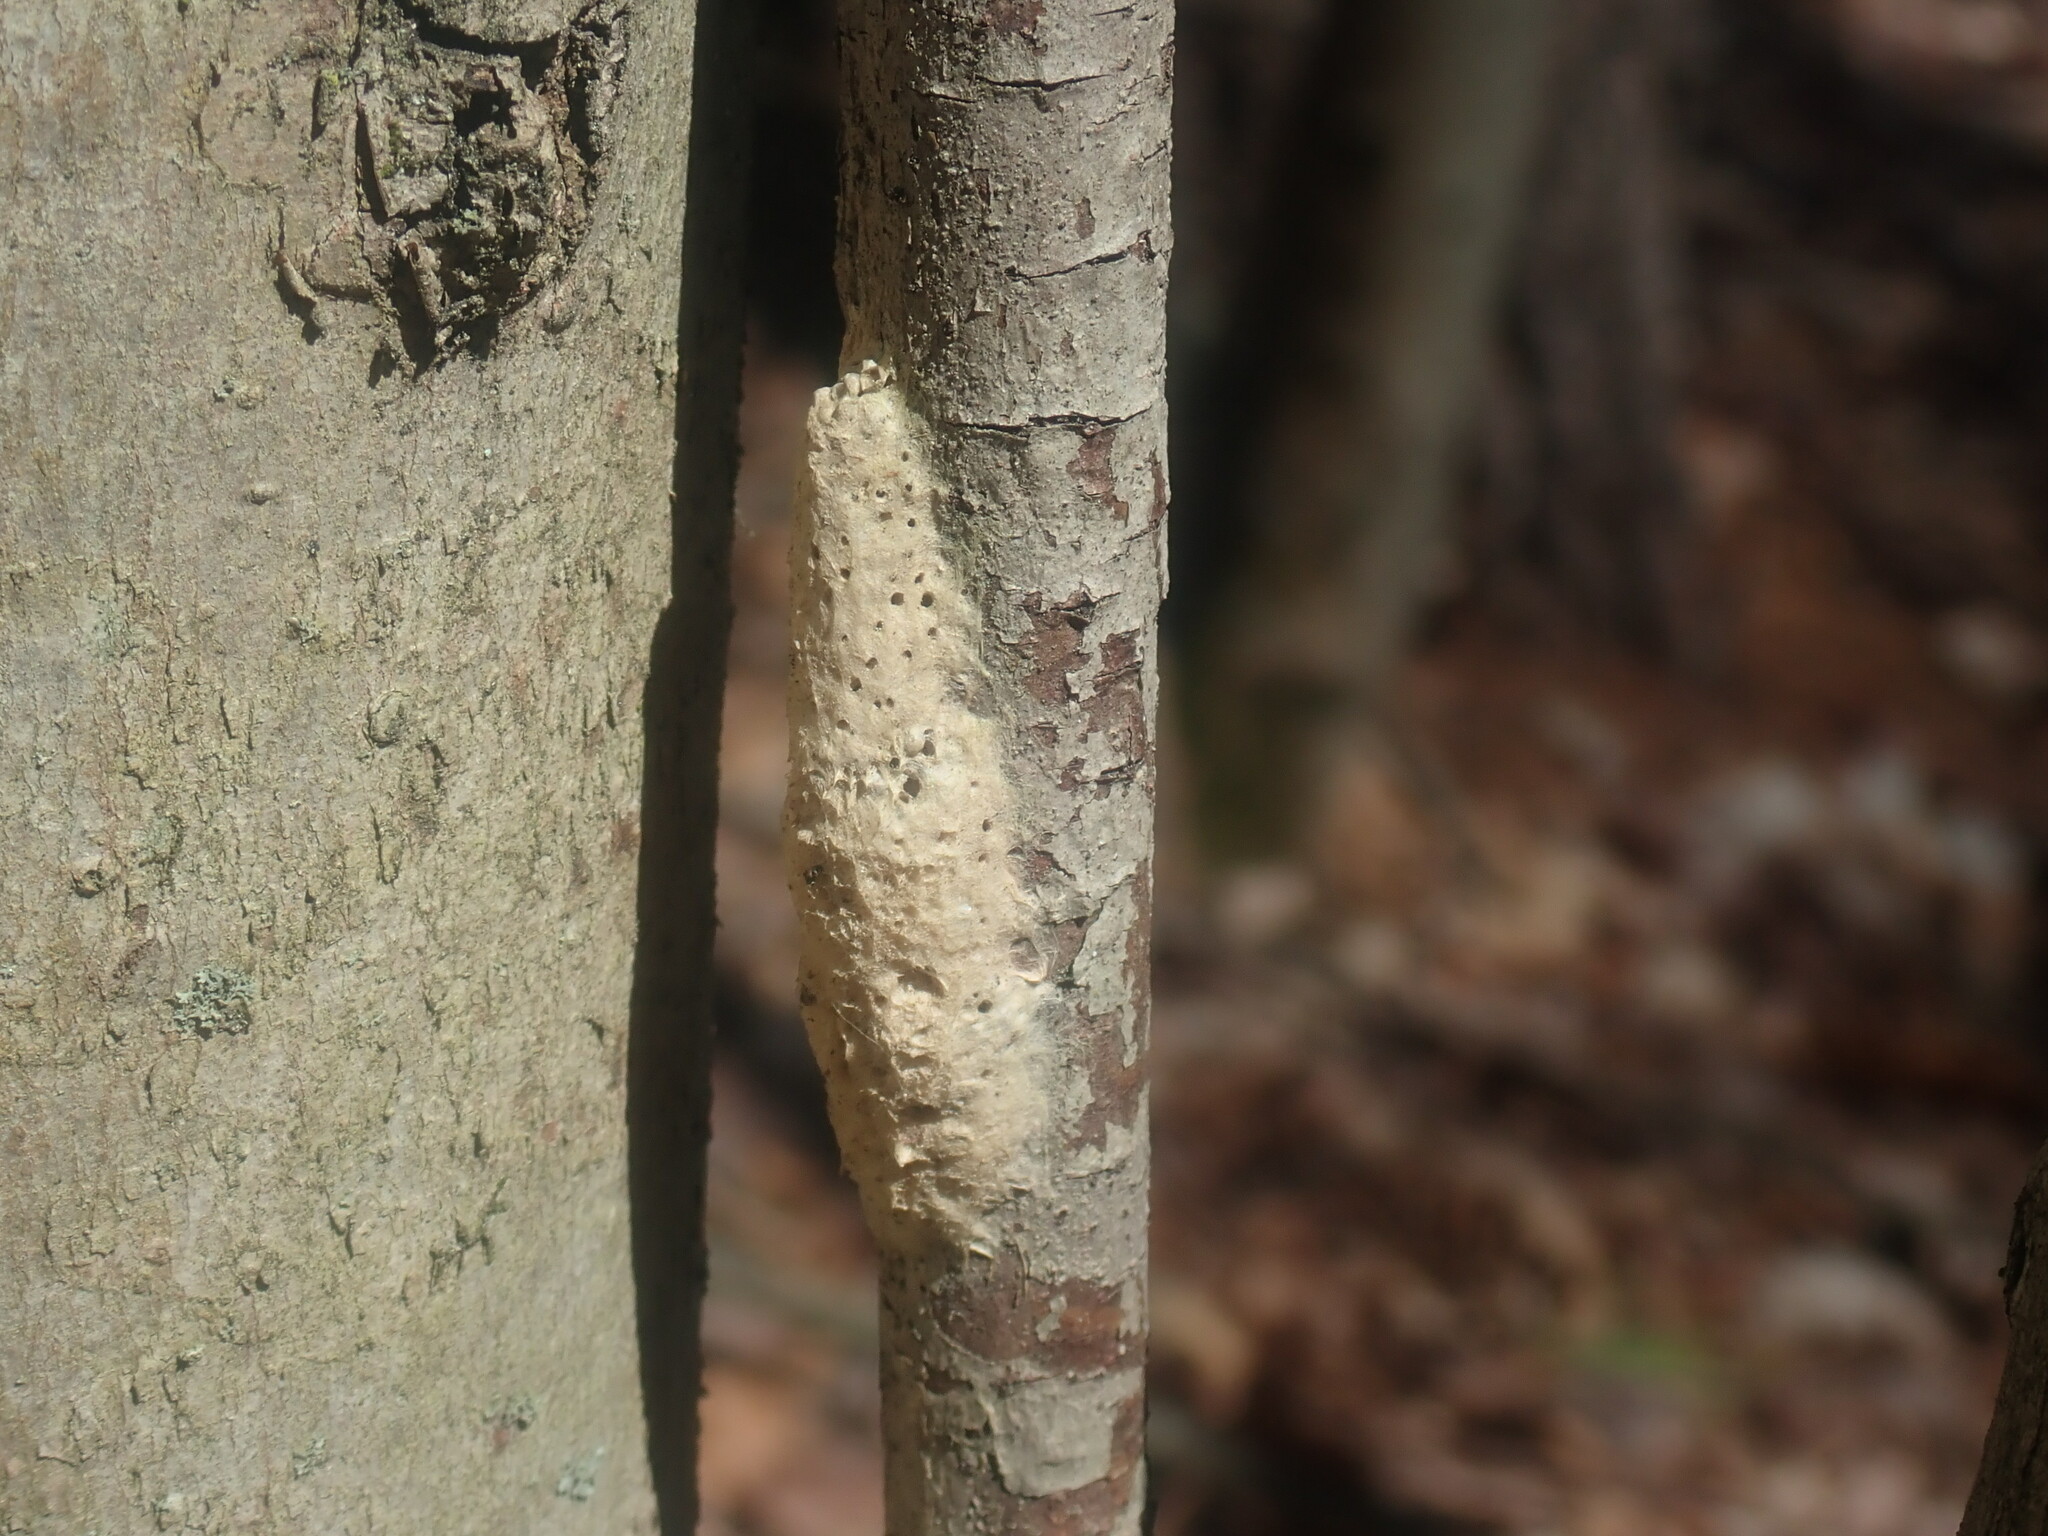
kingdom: Animalia
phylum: Arthropoda
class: Insecta
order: Lepidoptera
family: Erebidae
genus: Lymantria
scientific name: Lymantria dispar
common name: Gypsy moth
